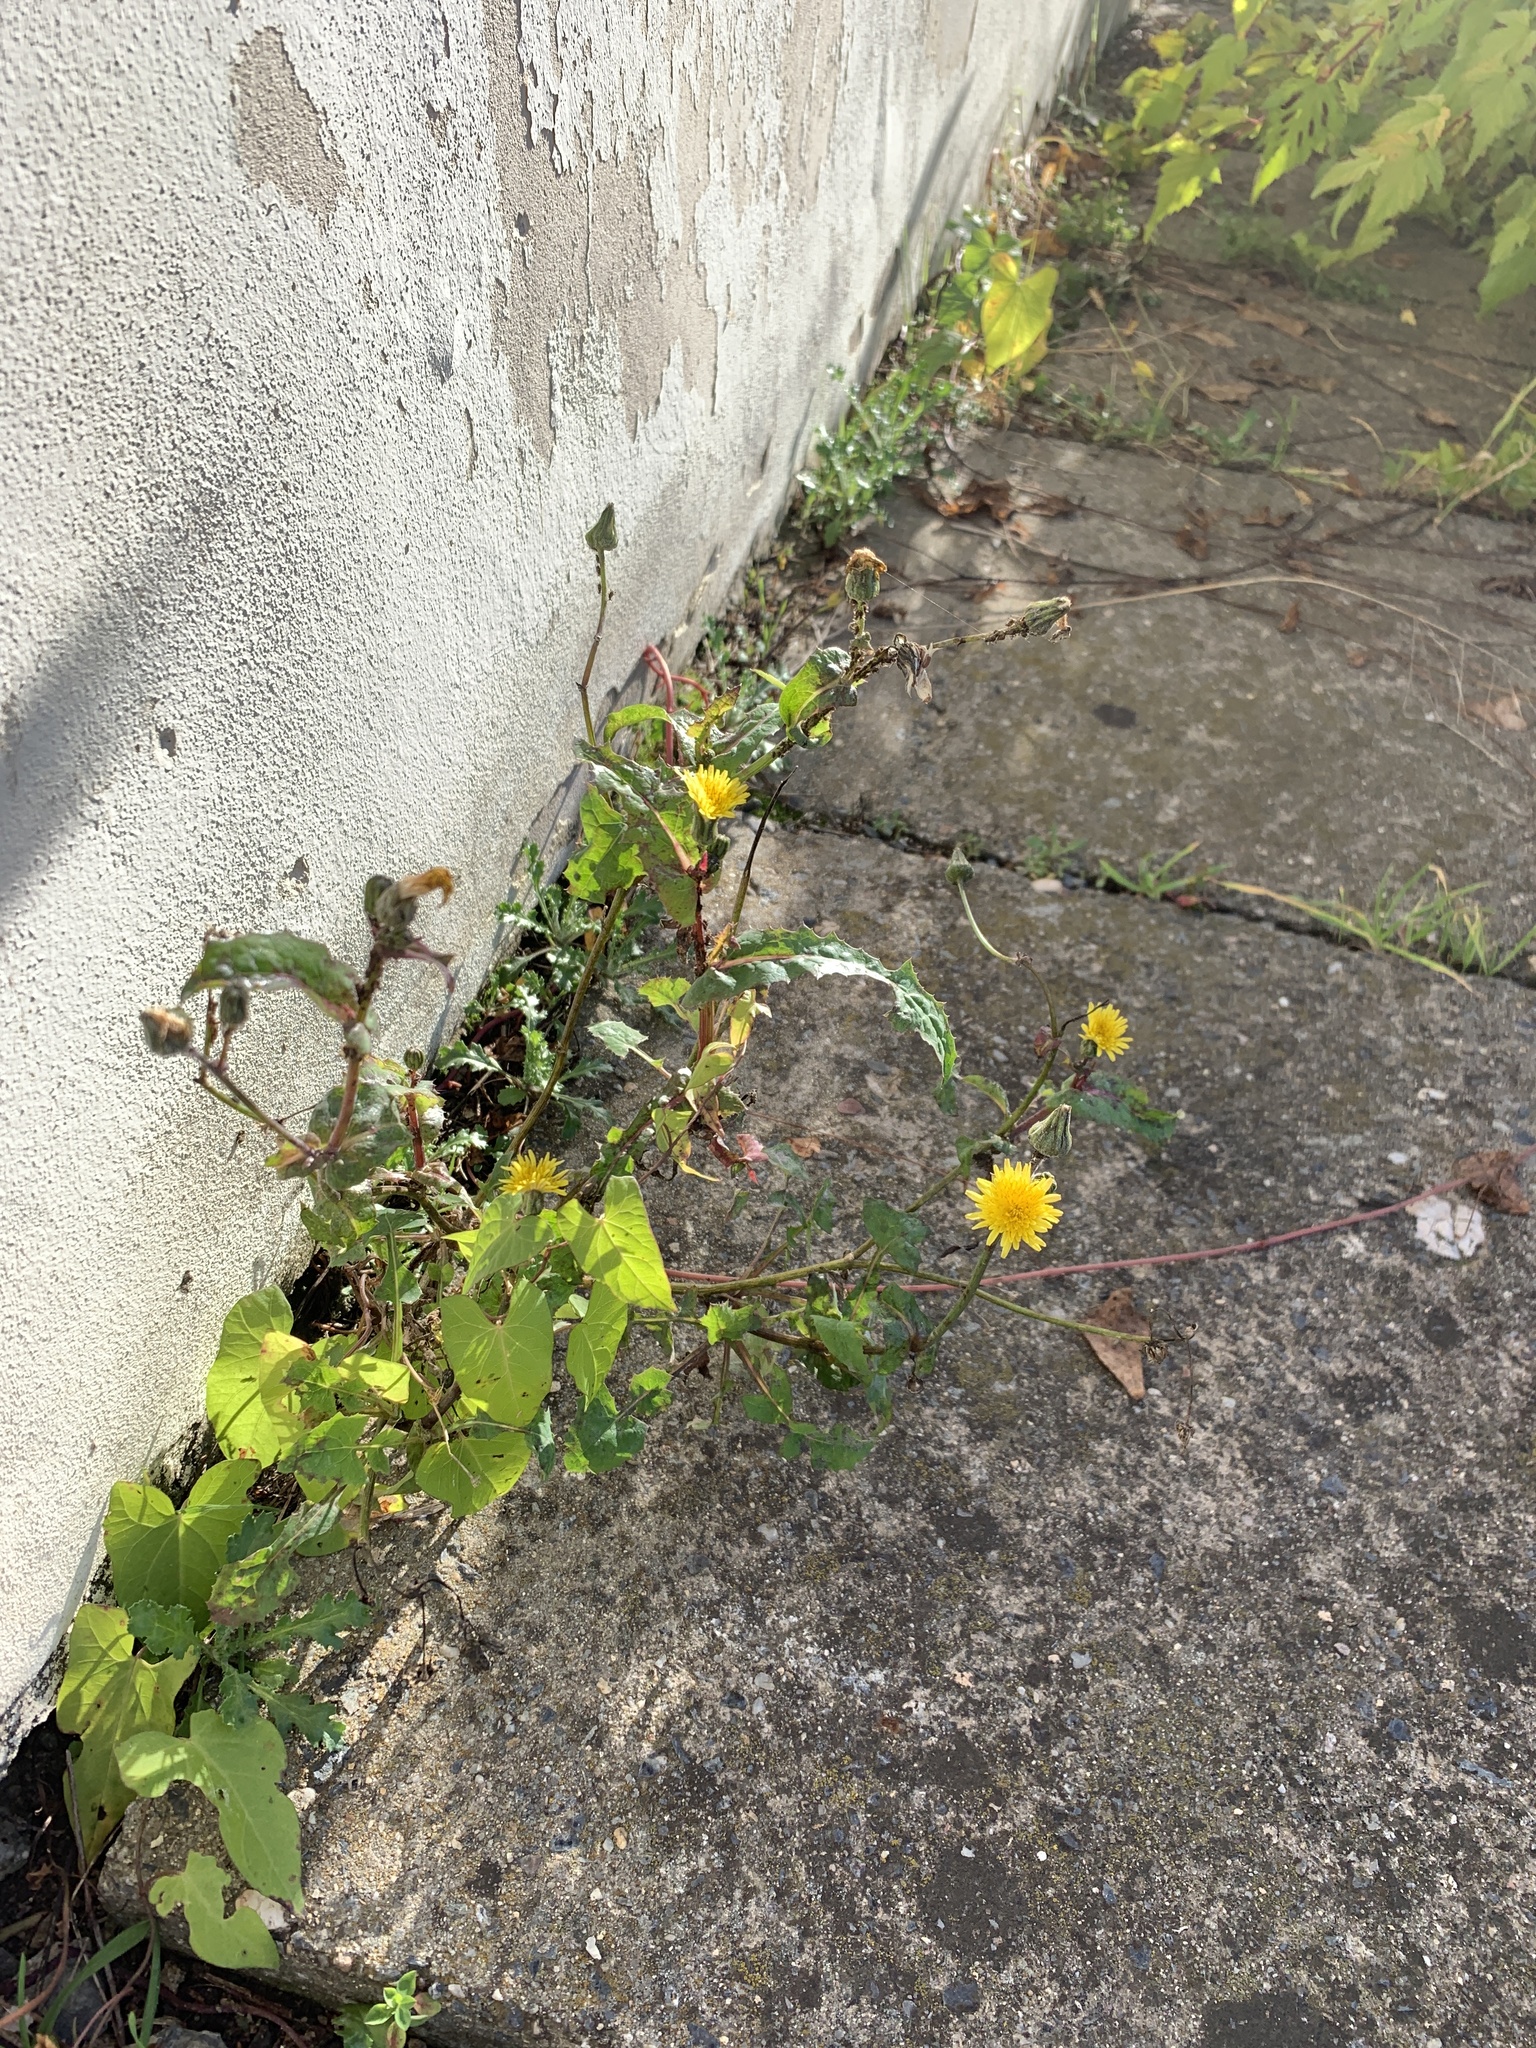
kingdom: Plantae
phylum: Tracheophyta
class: Magnoliopsida
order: Asterales
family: Asteraceae
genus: Sonchus
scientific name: Sonchus oleraceus
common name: Common sowthistle
